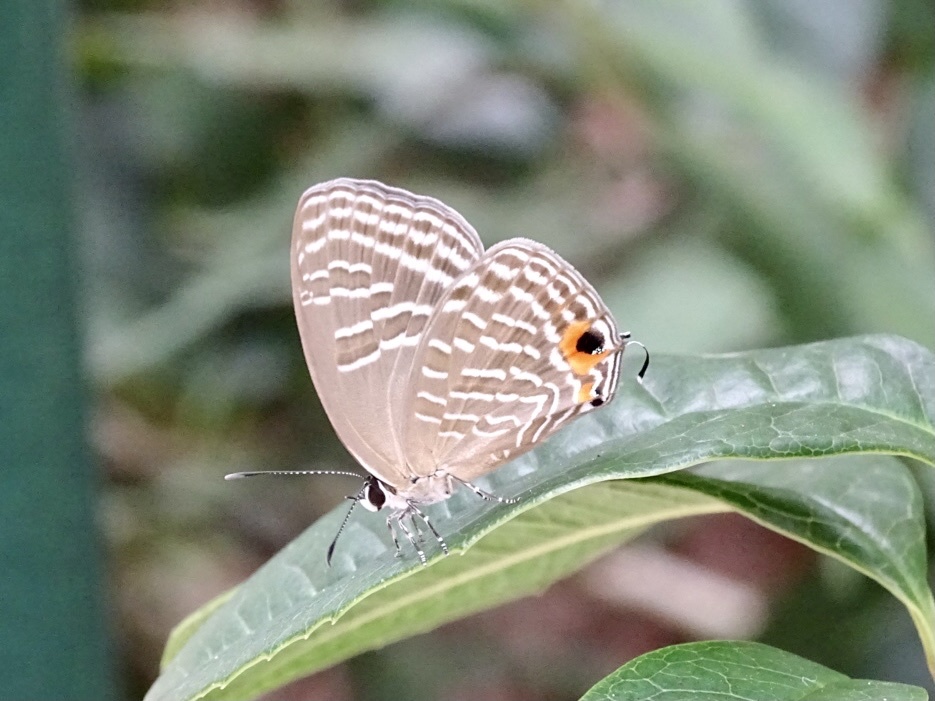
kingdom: Animalia
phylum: Arthropoda
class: Insecta
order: Lepidoptera
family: Lycaenidae
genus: Jamides
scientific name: Jamides alecto
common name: Metallic cerulean
